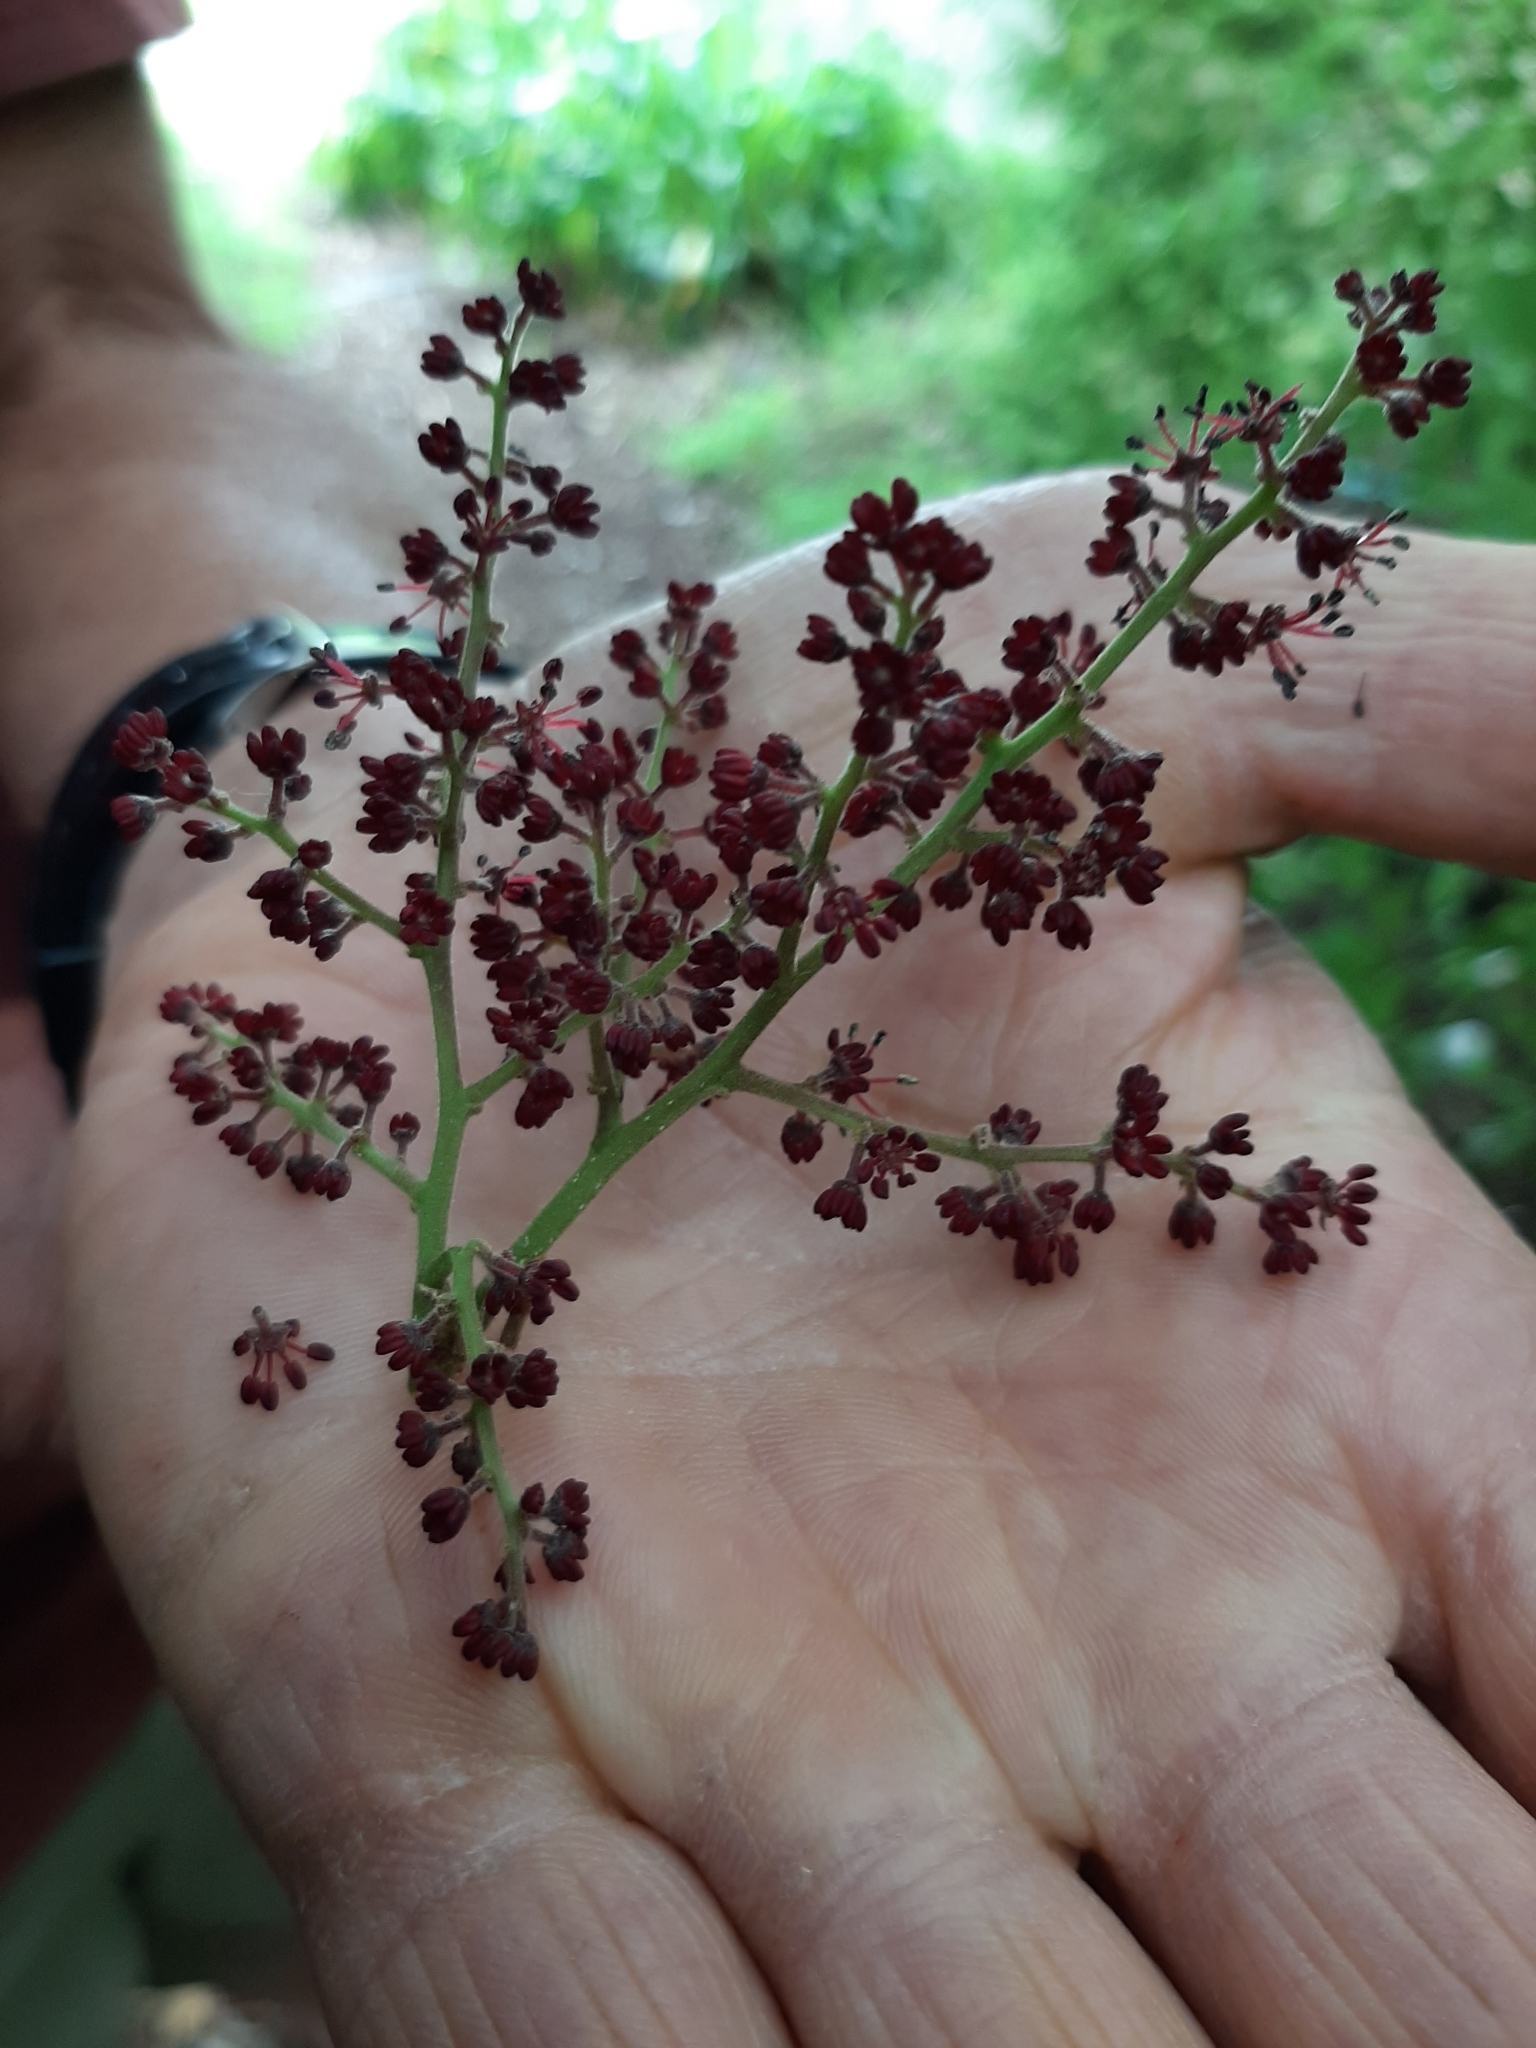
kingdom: Plantae
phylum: Tracheophyta
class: Magnoliopsida
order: Sapindales
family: Sapindaceae
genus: Alectryon
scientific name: Alectryon excelsus
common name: Three kings titoki
